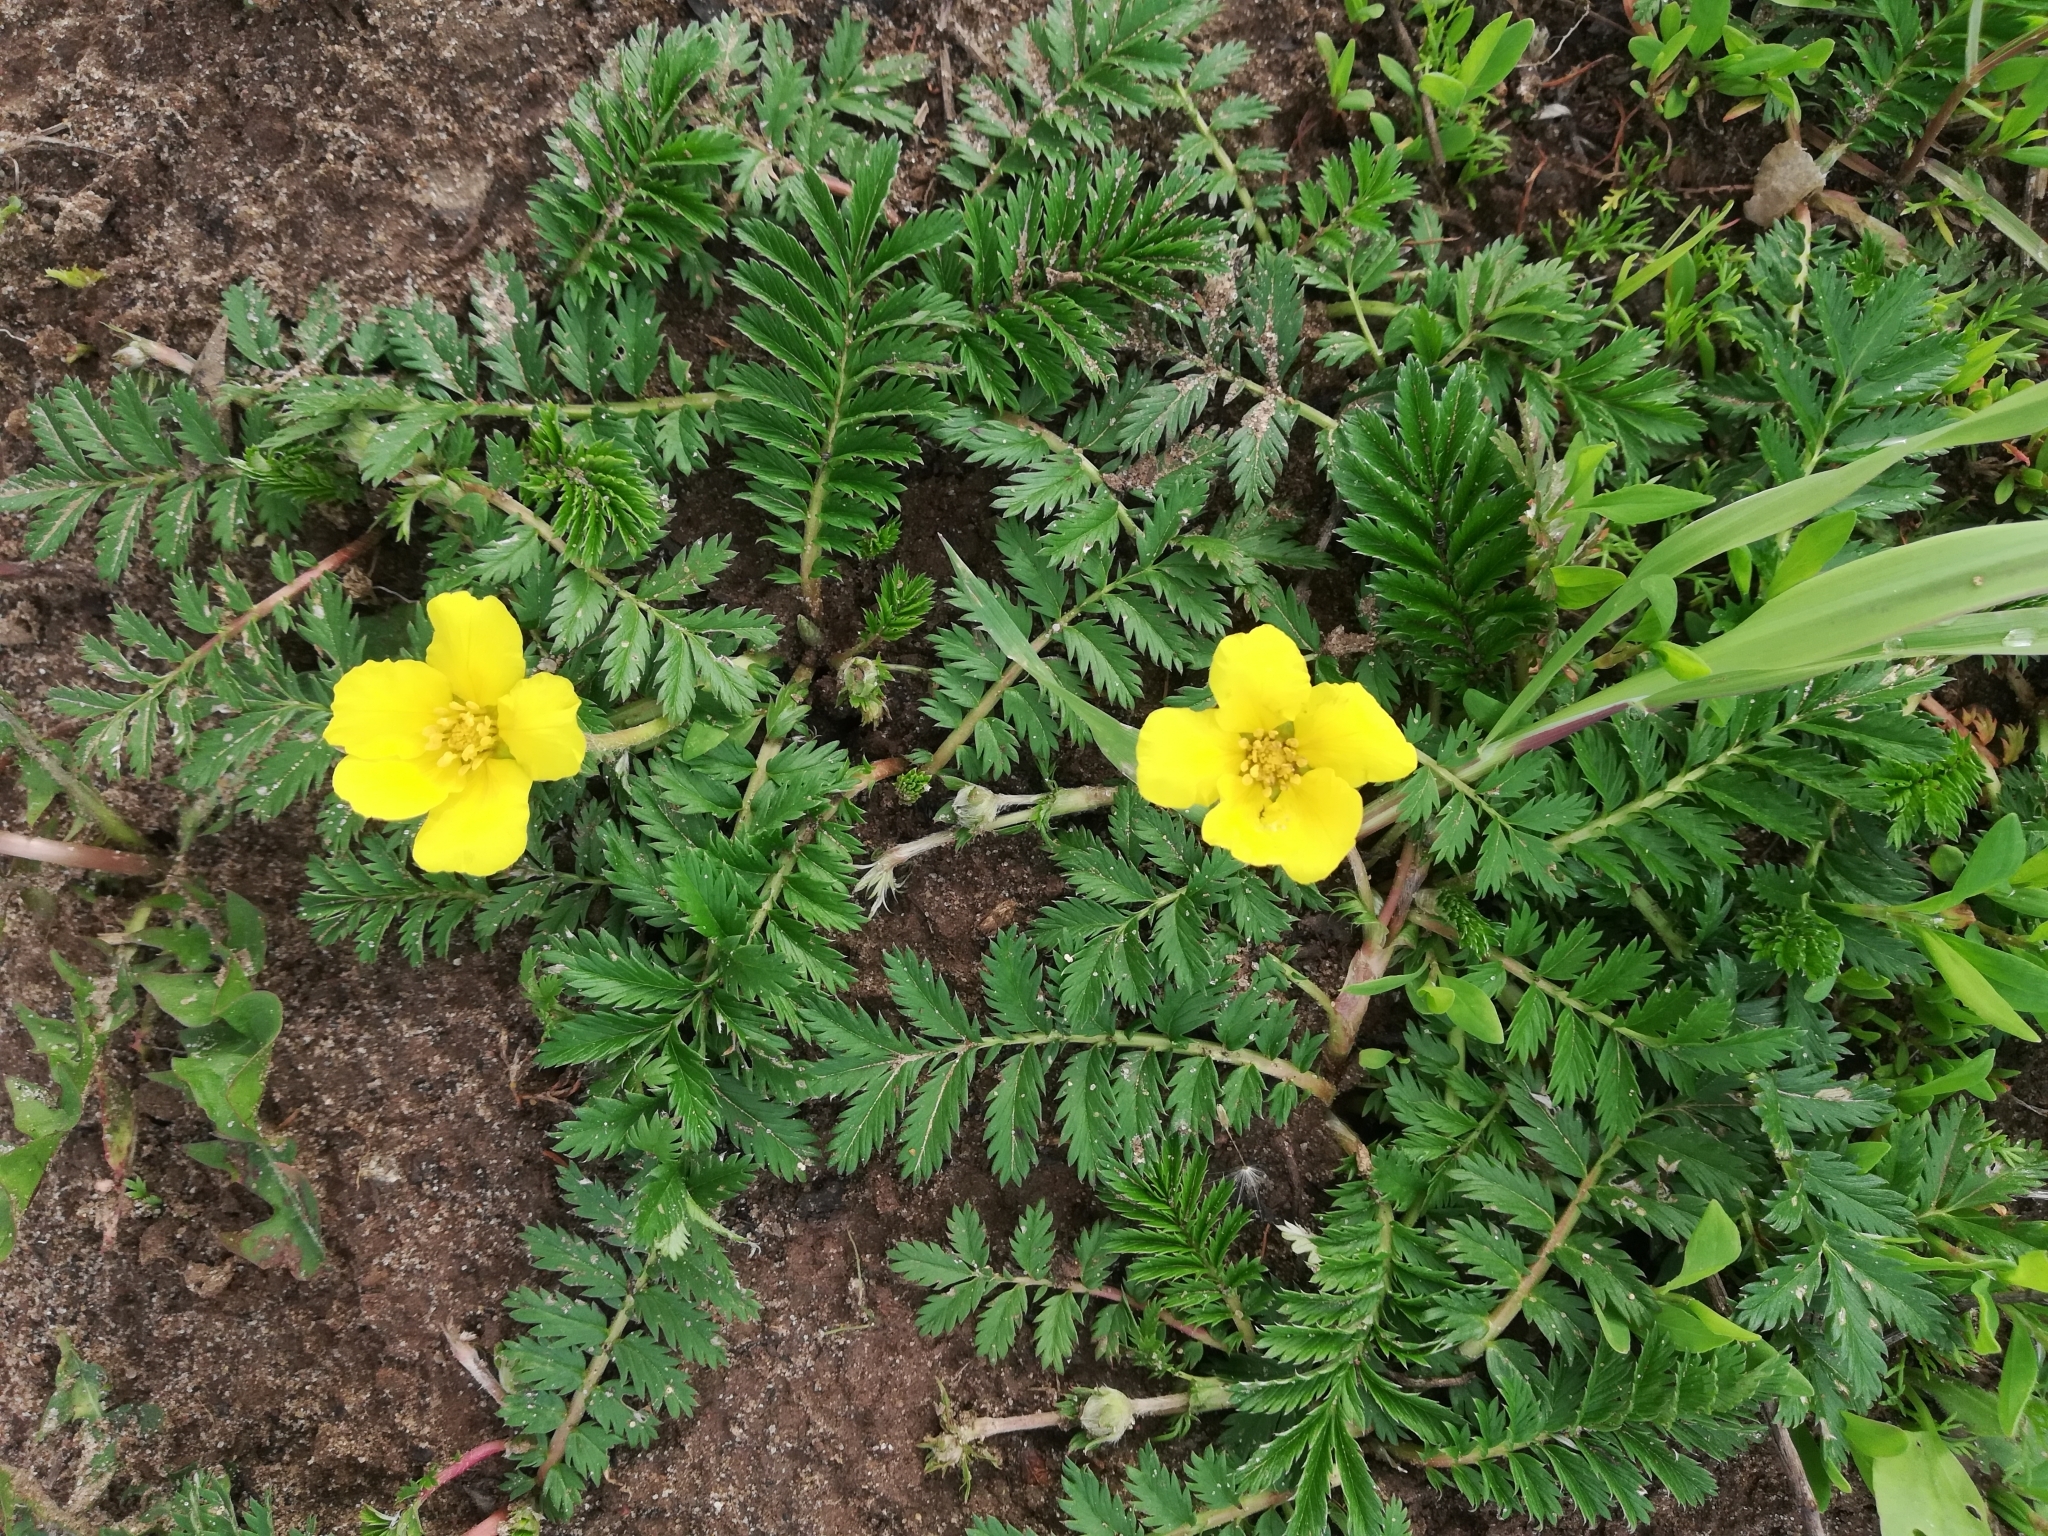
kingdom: Plantae
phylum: Tracheophyta
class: Magnoliopsida
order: Rosales
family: Rosaceae
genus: Argentina
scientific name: Argentina anserina
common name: Common silverweed
